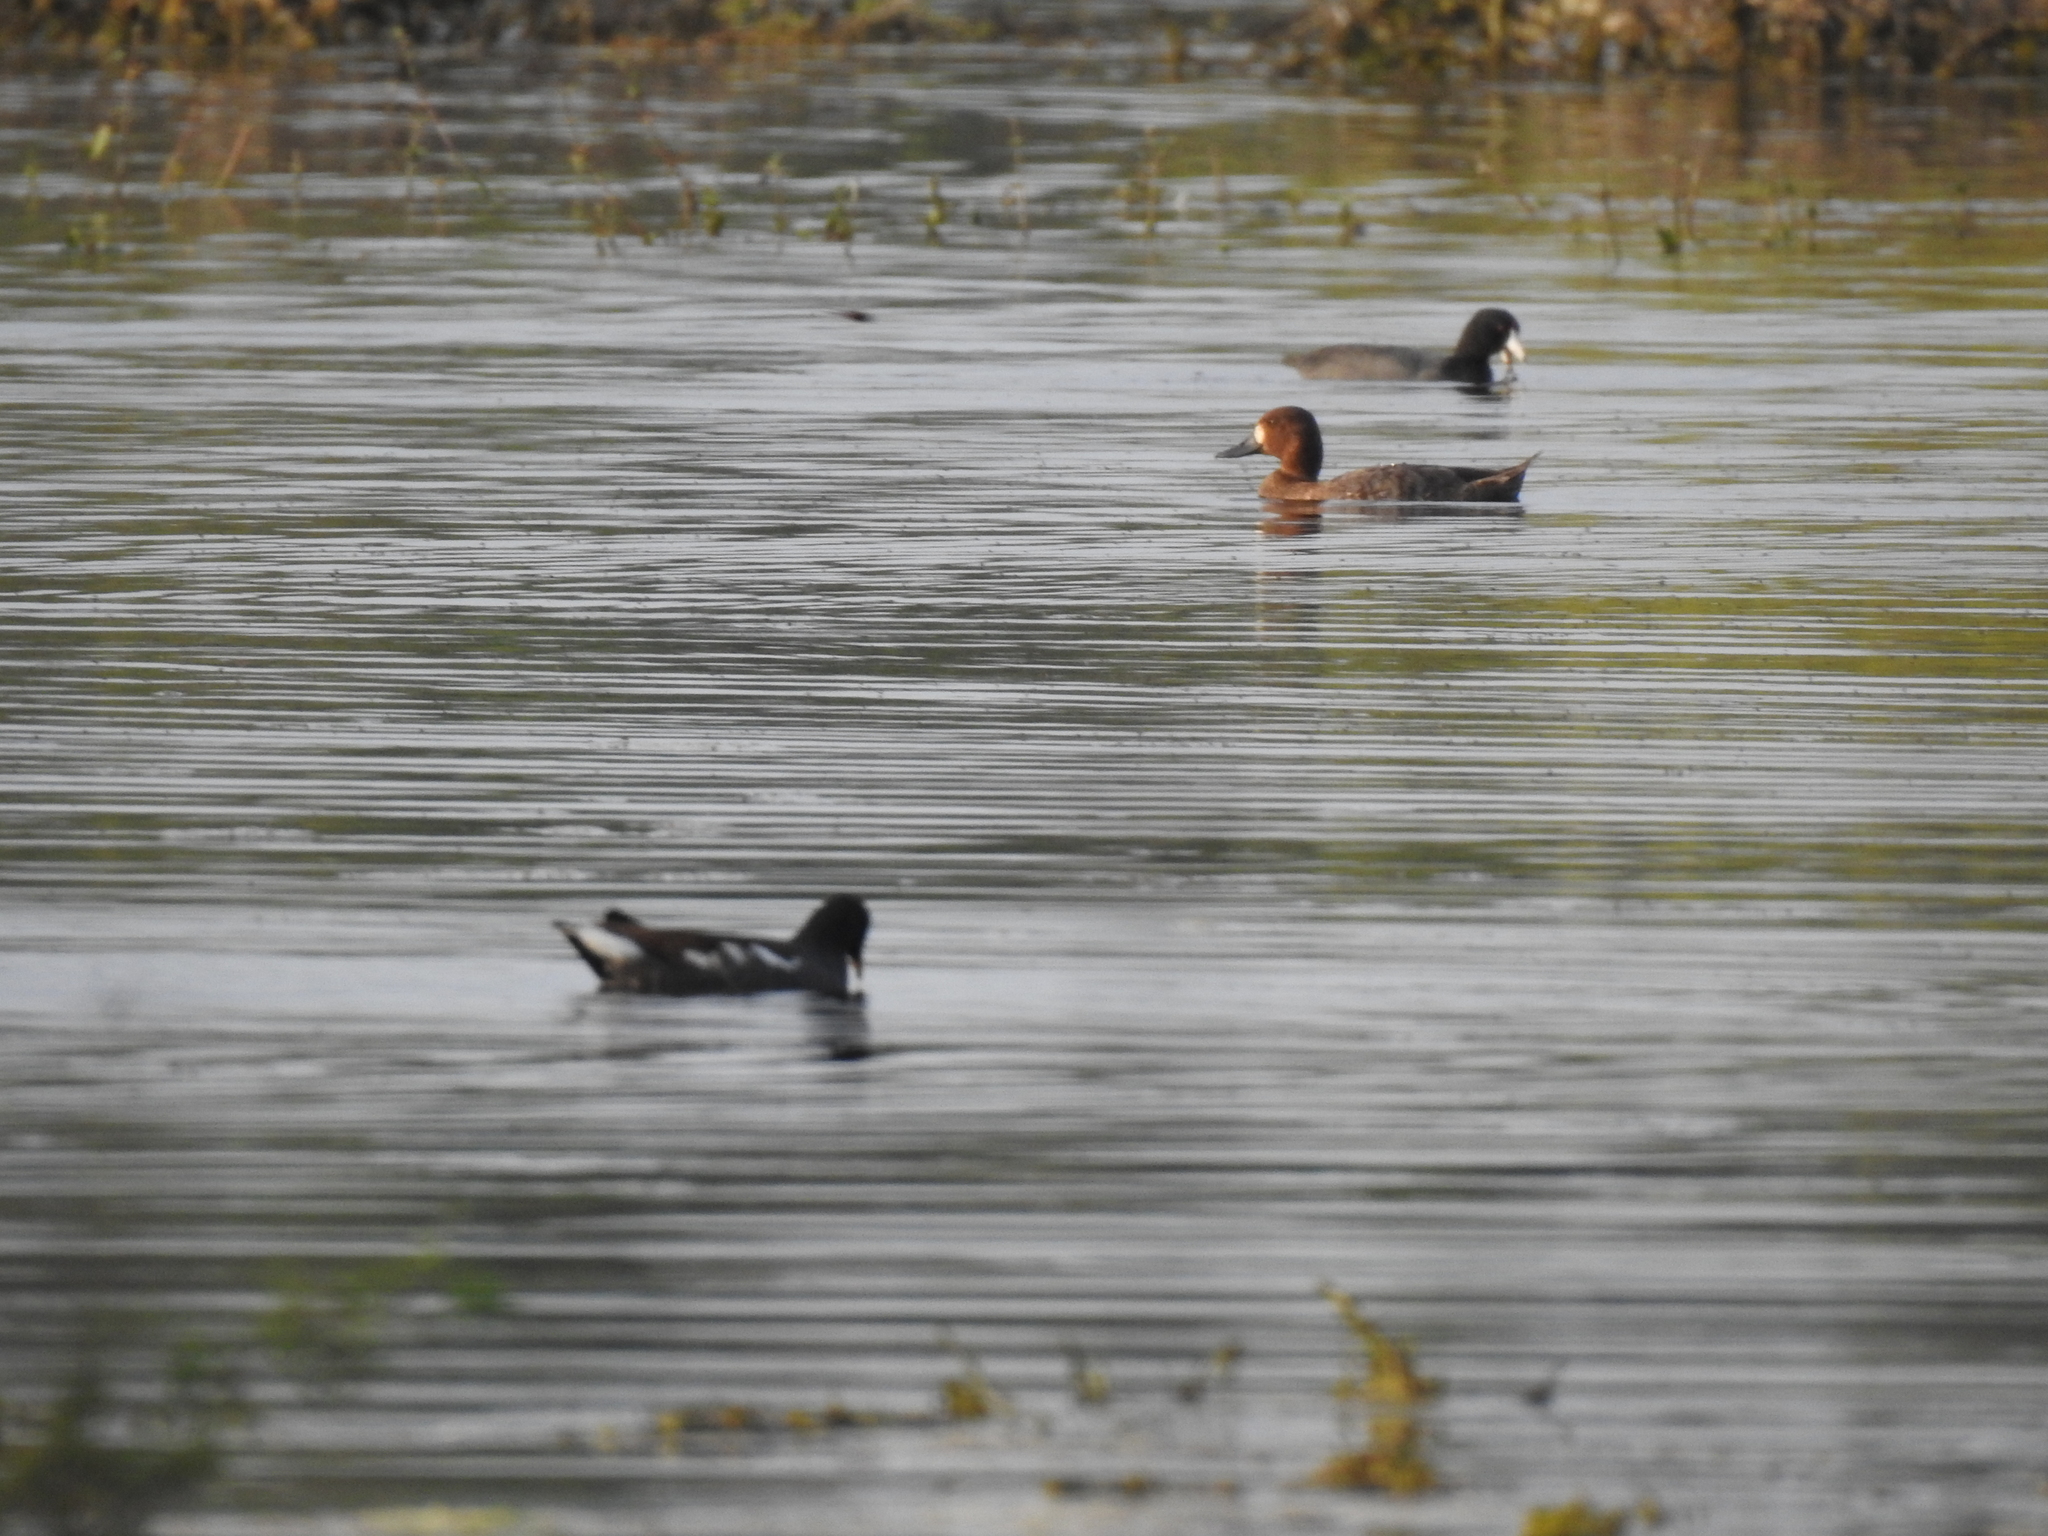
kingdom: Animalia
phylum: Chordata
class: Aves
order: Anseriformes
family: Anatidae
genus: Aythya
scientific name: Aythya affinis
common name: Lesser scaup
